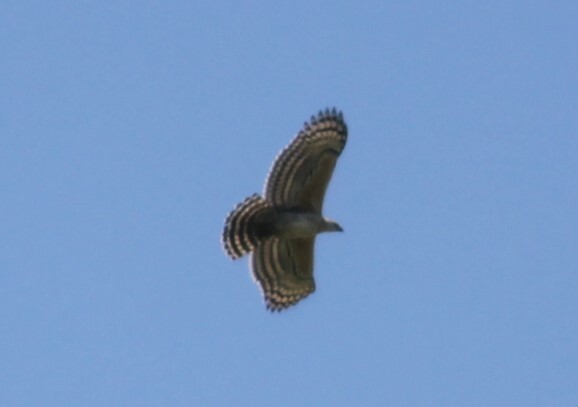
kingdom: Animalia
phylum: Chordata
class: Aves
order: Accipitriformes
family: Accipitridae
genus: Stephanoaetus
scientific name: Stephanoaetus coronatus
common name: Crowned eagle
